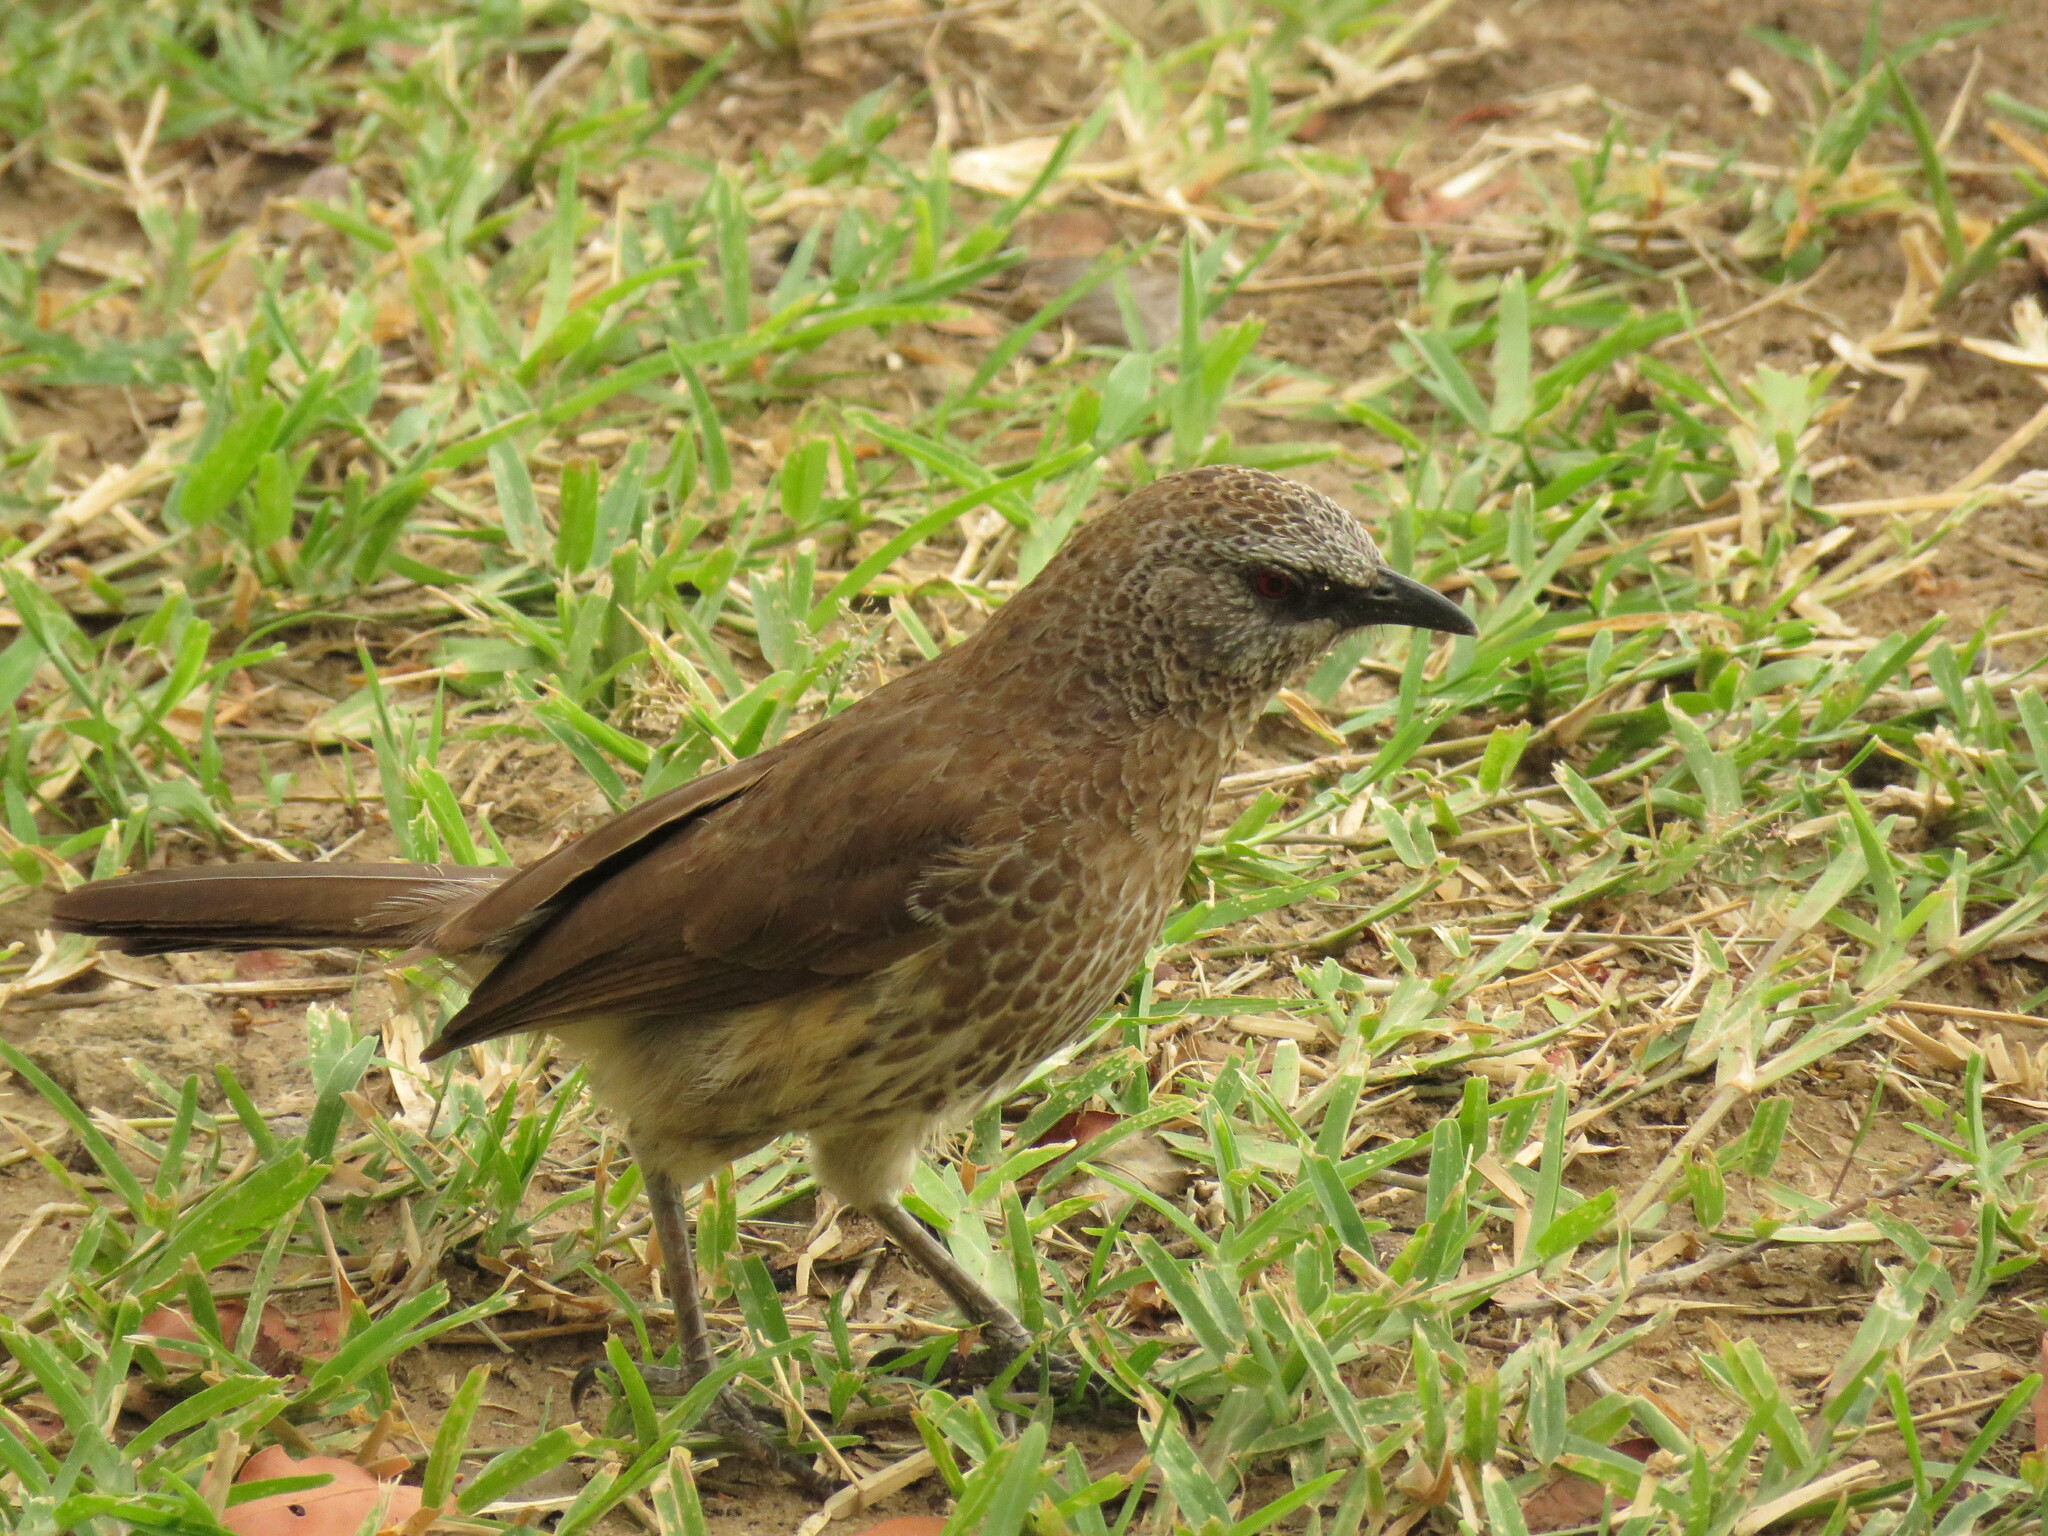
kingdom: Animalia
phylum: Chordata
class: Aves
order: Passeriformes
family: Leiothrichidae
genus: Turdoides
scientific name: Turdoides hartlaubii
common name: Hartlaub's babbler
